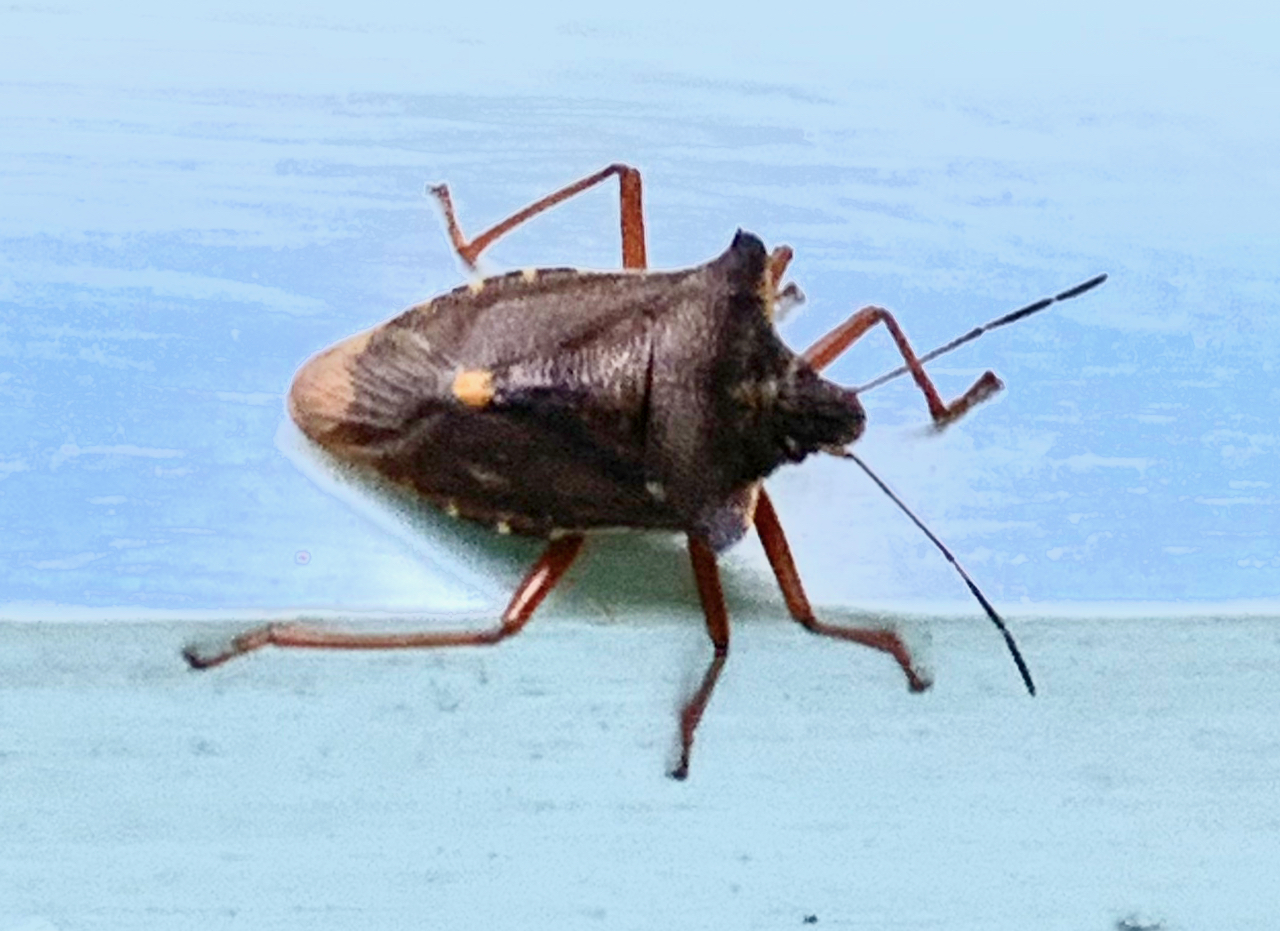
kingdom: Animalia
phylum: Arthropoda
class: Insecta
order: Hemiptera
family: Pentatomidae
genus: Pentatoma
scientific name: Pentatoma rufipes
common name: Forest bug
